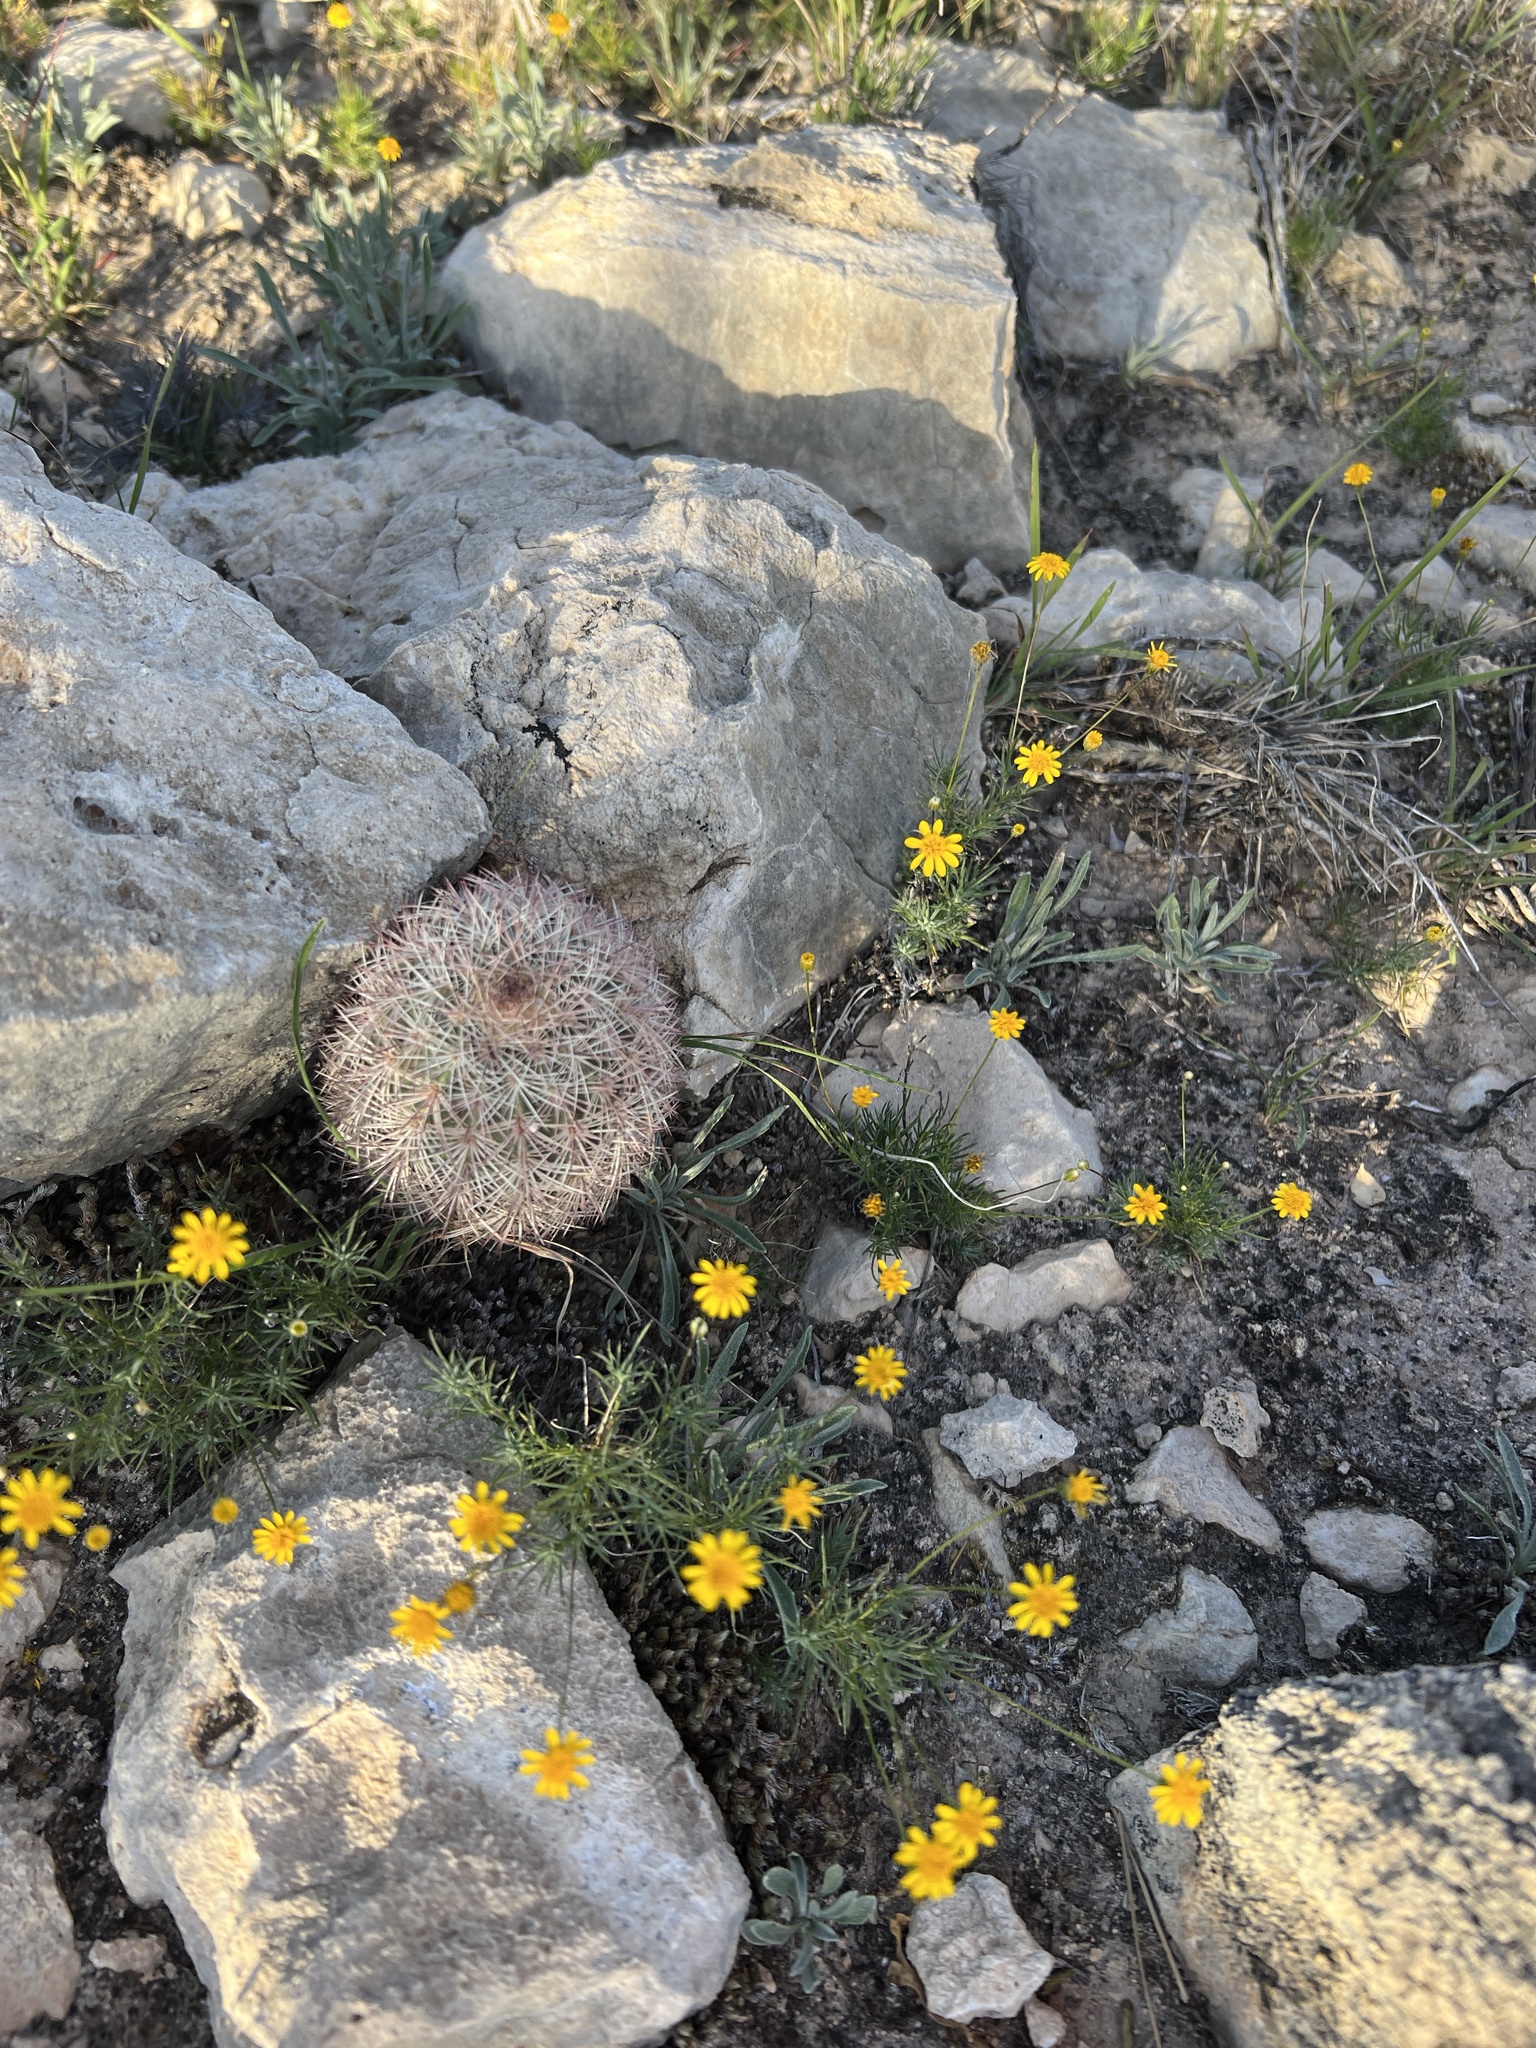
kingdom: Plantae
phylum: Tracheophyta
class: Magnoliopsida
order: Caryophyllales
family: Cactaceae
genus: Echinocereus
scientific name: Echinocereus dasyacanthus
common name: Spiny hedgehog cactus
